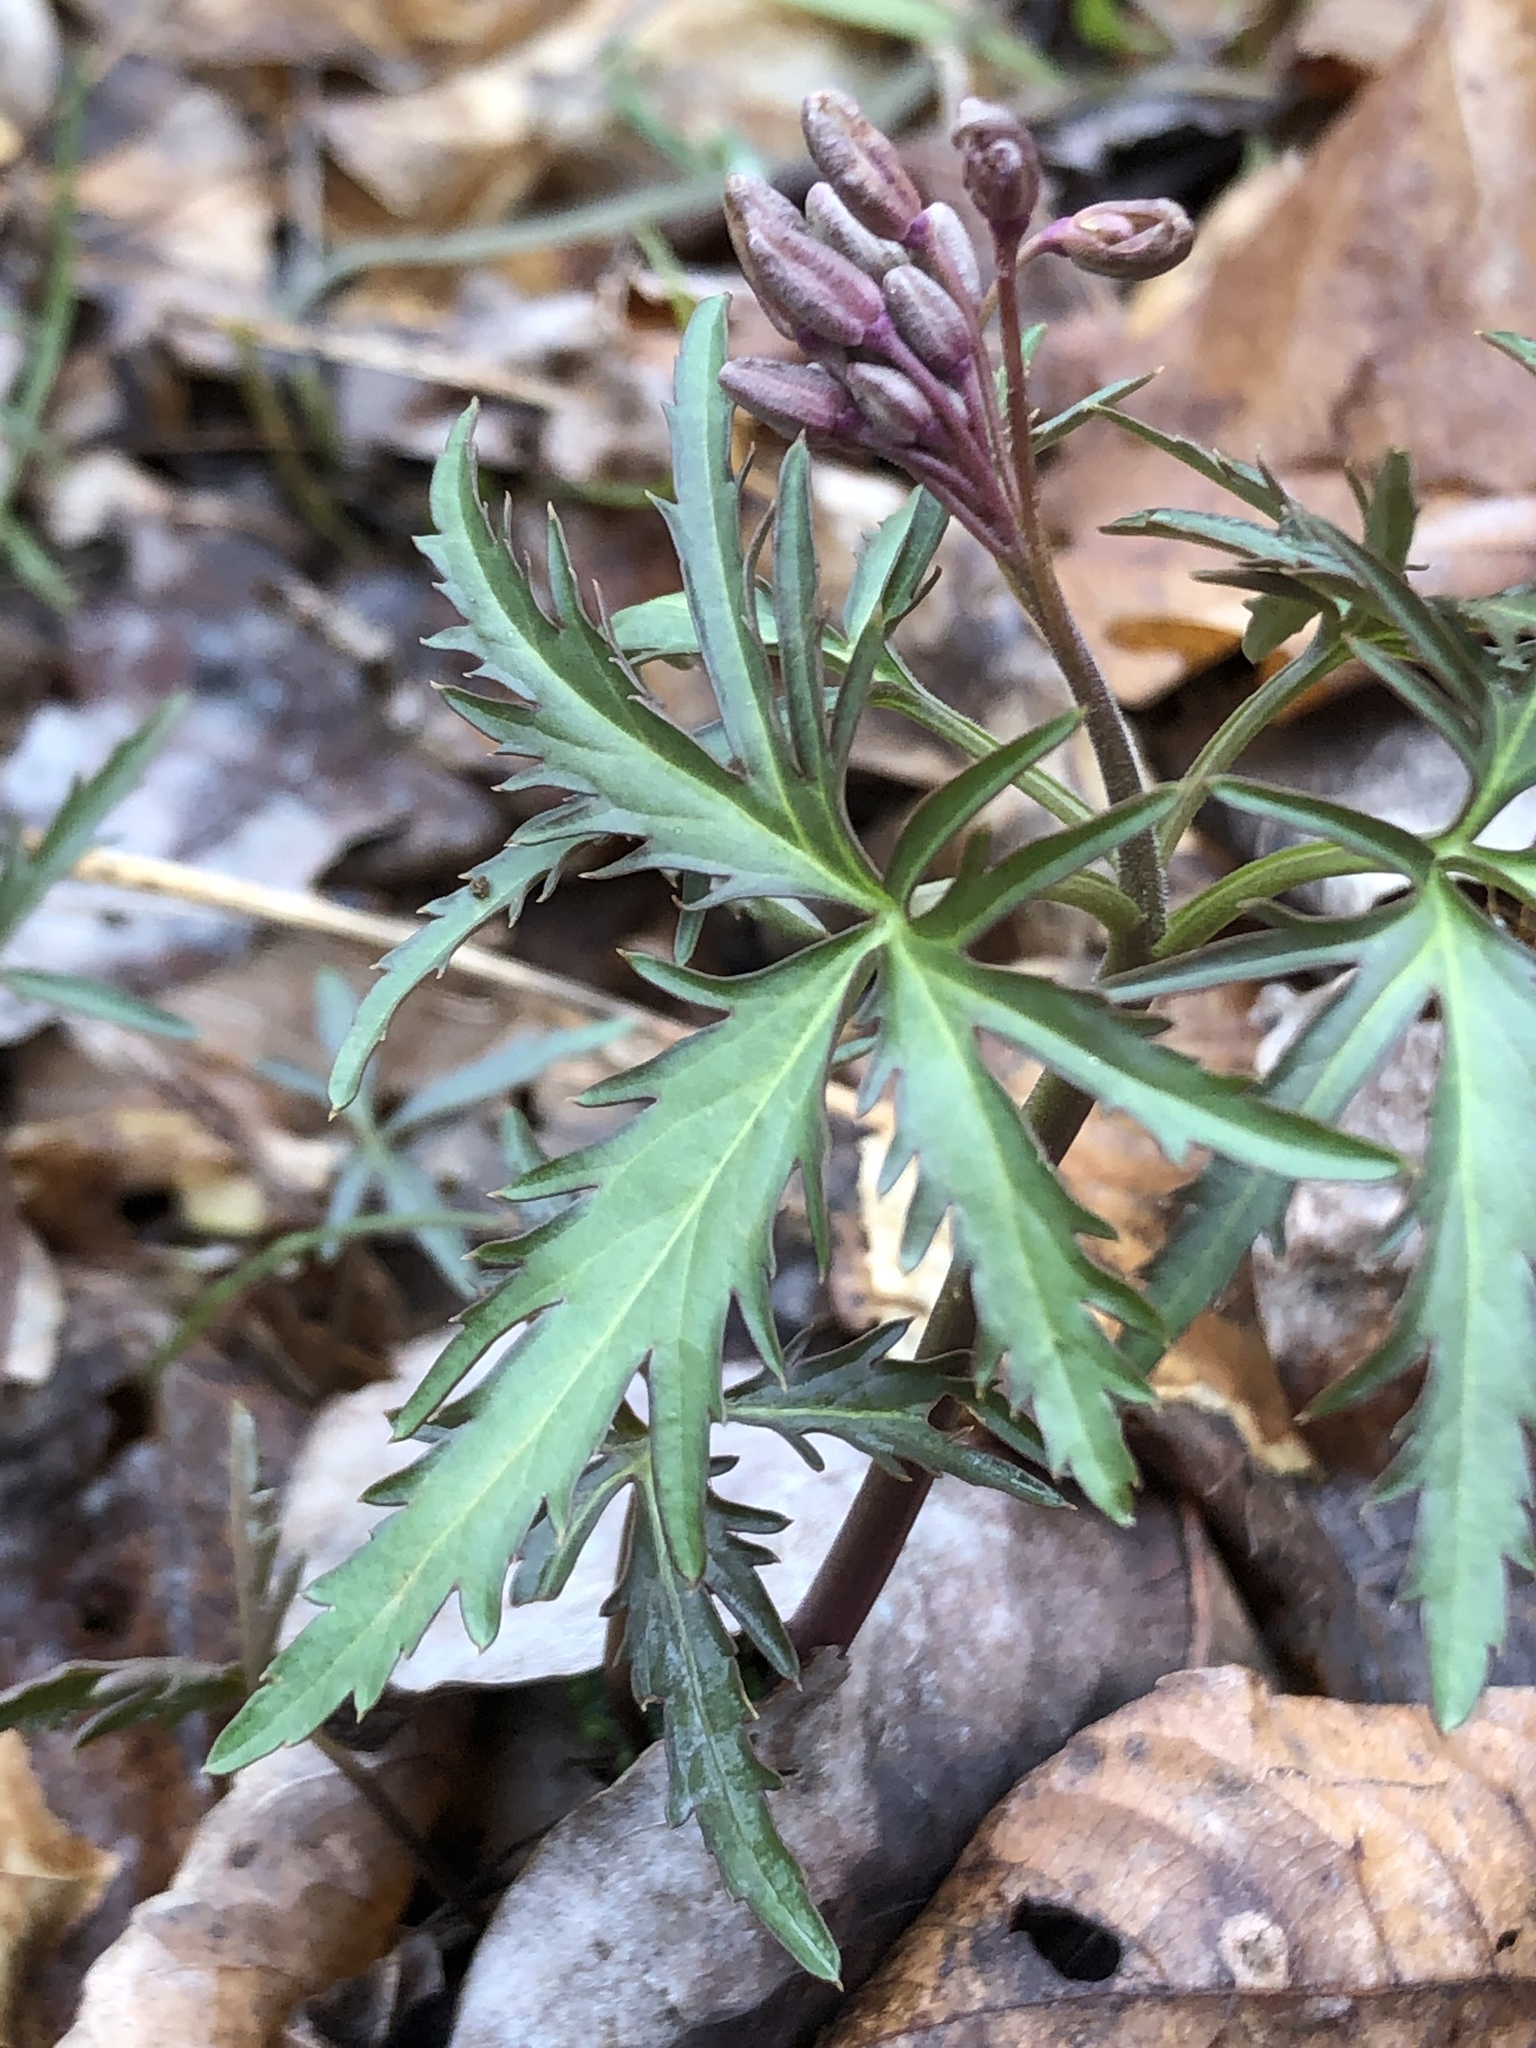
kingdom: Plantae
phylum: Tracheophyta
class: Magnoliopsida
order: Brassicales
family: Brassicaceae
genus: Cardamine
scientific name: Cardamine concatenata
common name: Cut-leaf toothcup
